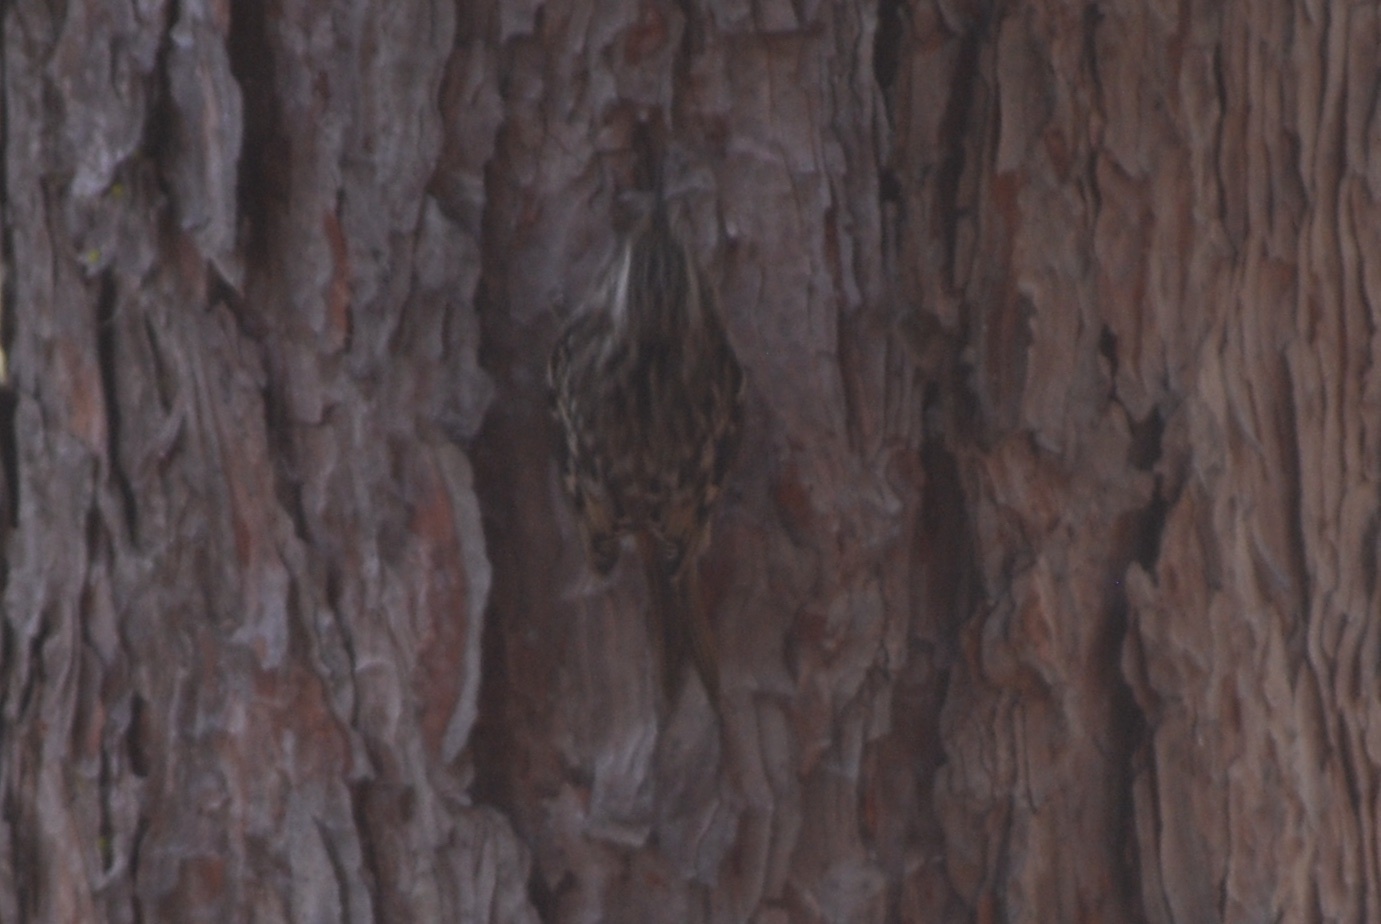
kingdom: Animalia
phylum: Chordata
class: Aves
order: Passeriformes
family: Certhiidae
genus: Certhia
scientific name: Certhia americana
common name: Brown creeper
